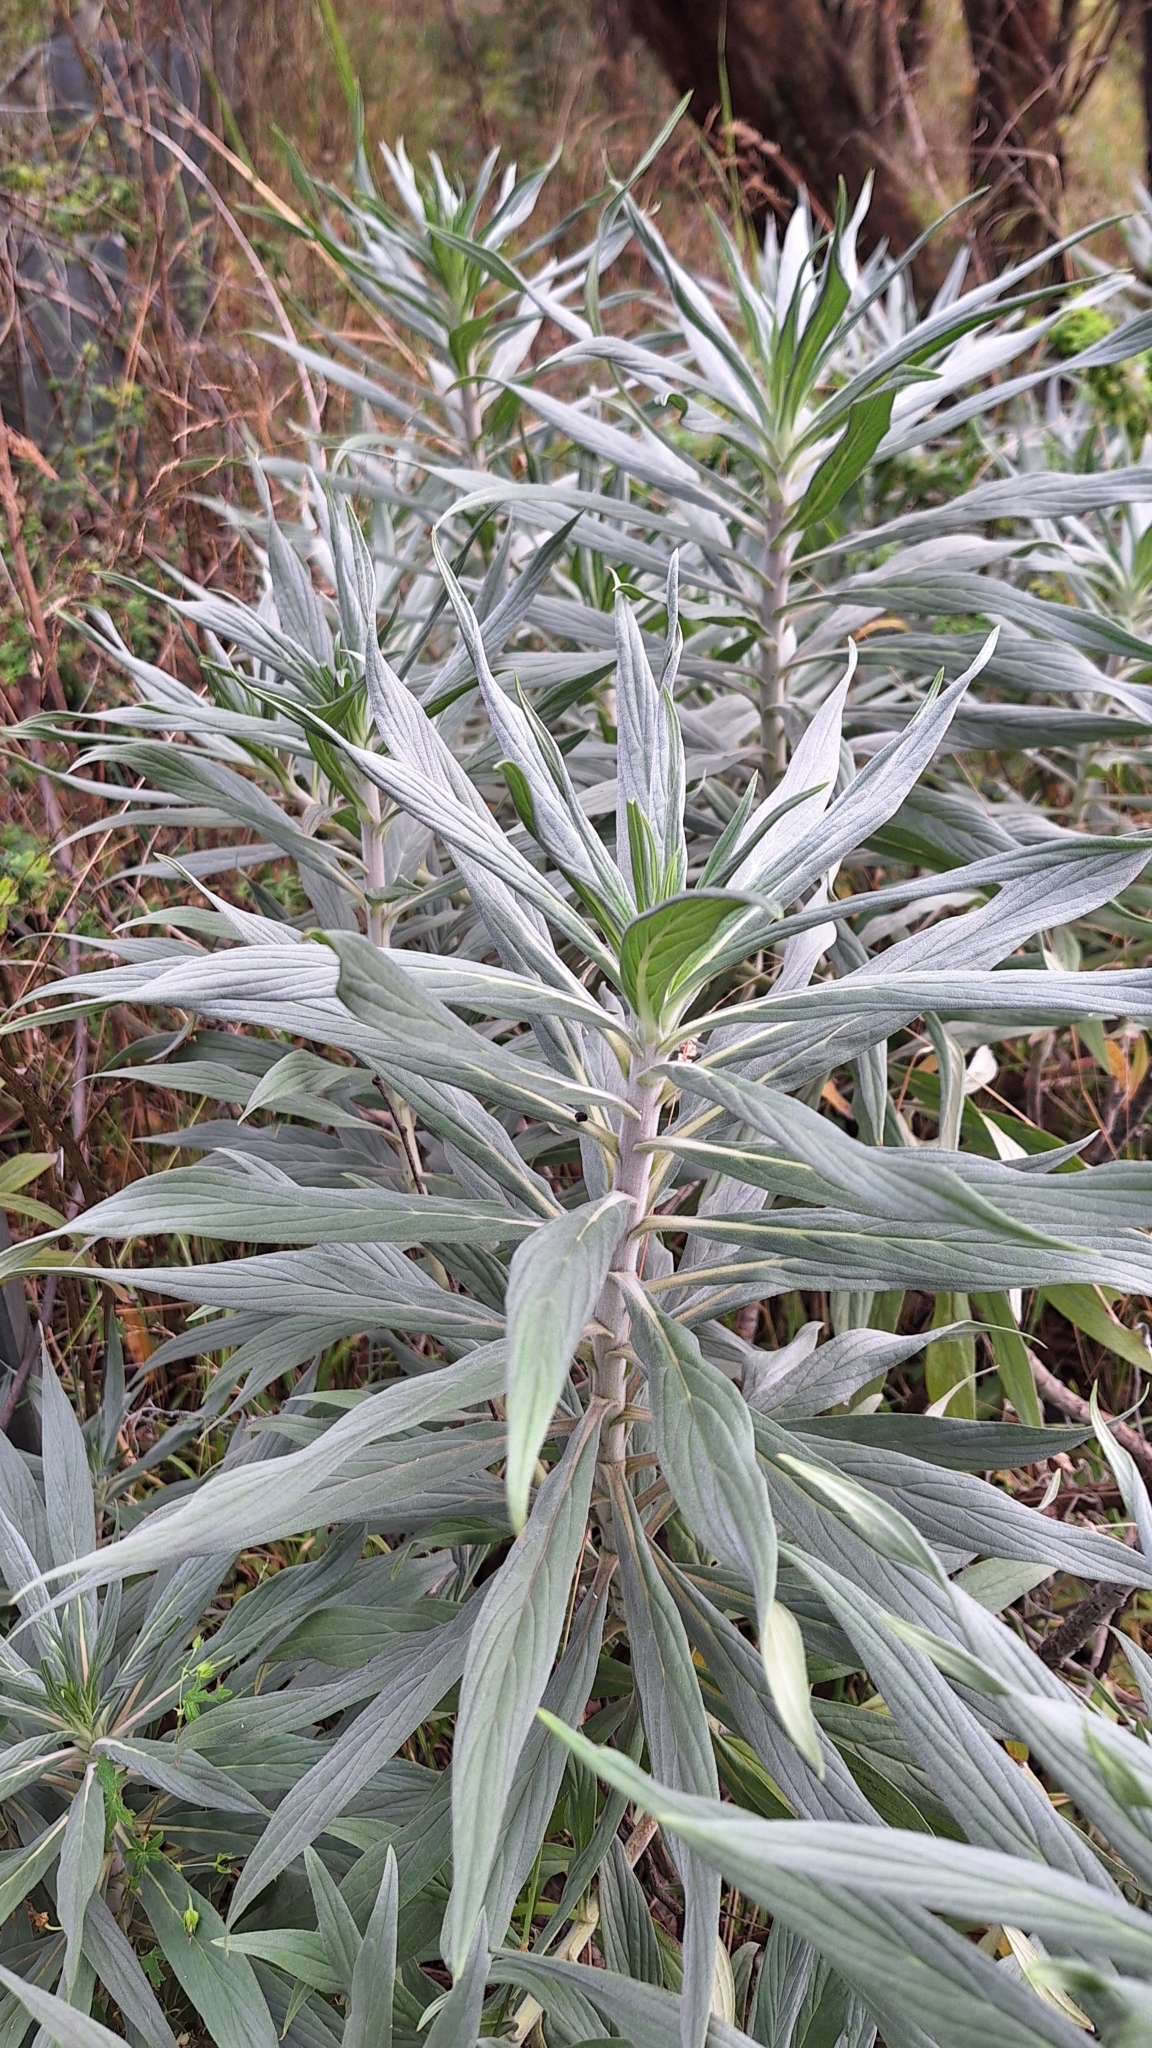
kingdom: Plantae
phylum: Tracheophyta
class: Magnoliopsida
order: Boraginales
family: Boraginaceae
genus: Echium
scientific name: Echium candicans
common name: Pride of madeira
